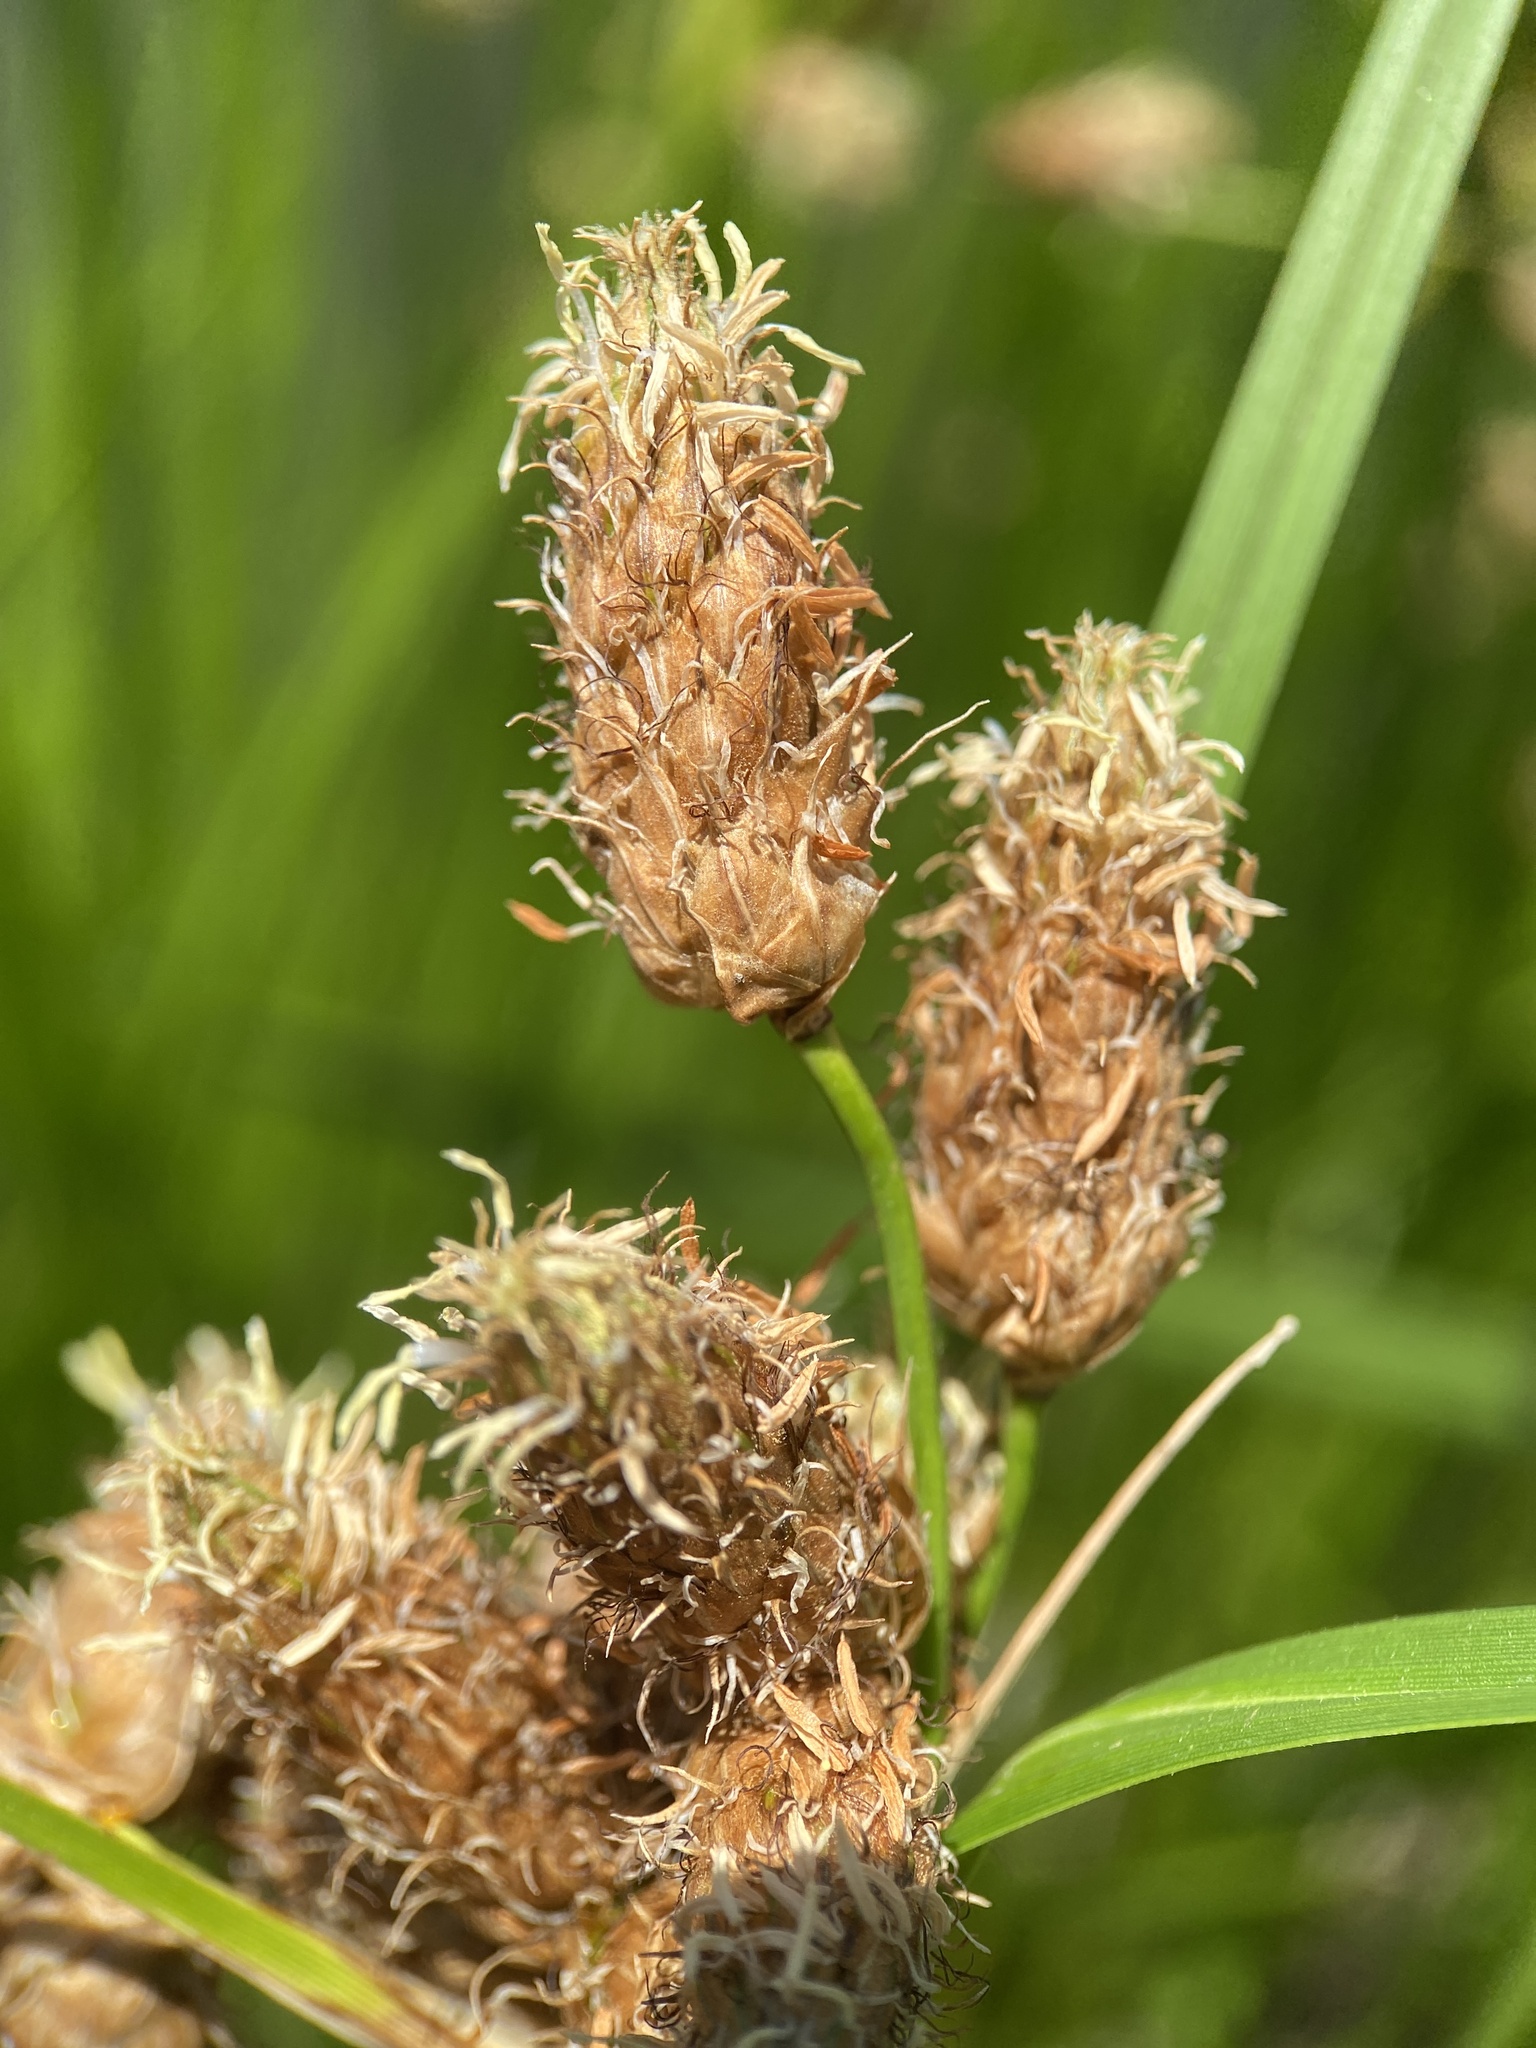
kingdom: Plantae
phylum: Tracheophyta
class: Liliopsida
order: Poales
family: Cyperaceae
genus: Bolboschoenus
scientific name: Bolboschoenus robustus
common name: Seacoast bulrush
